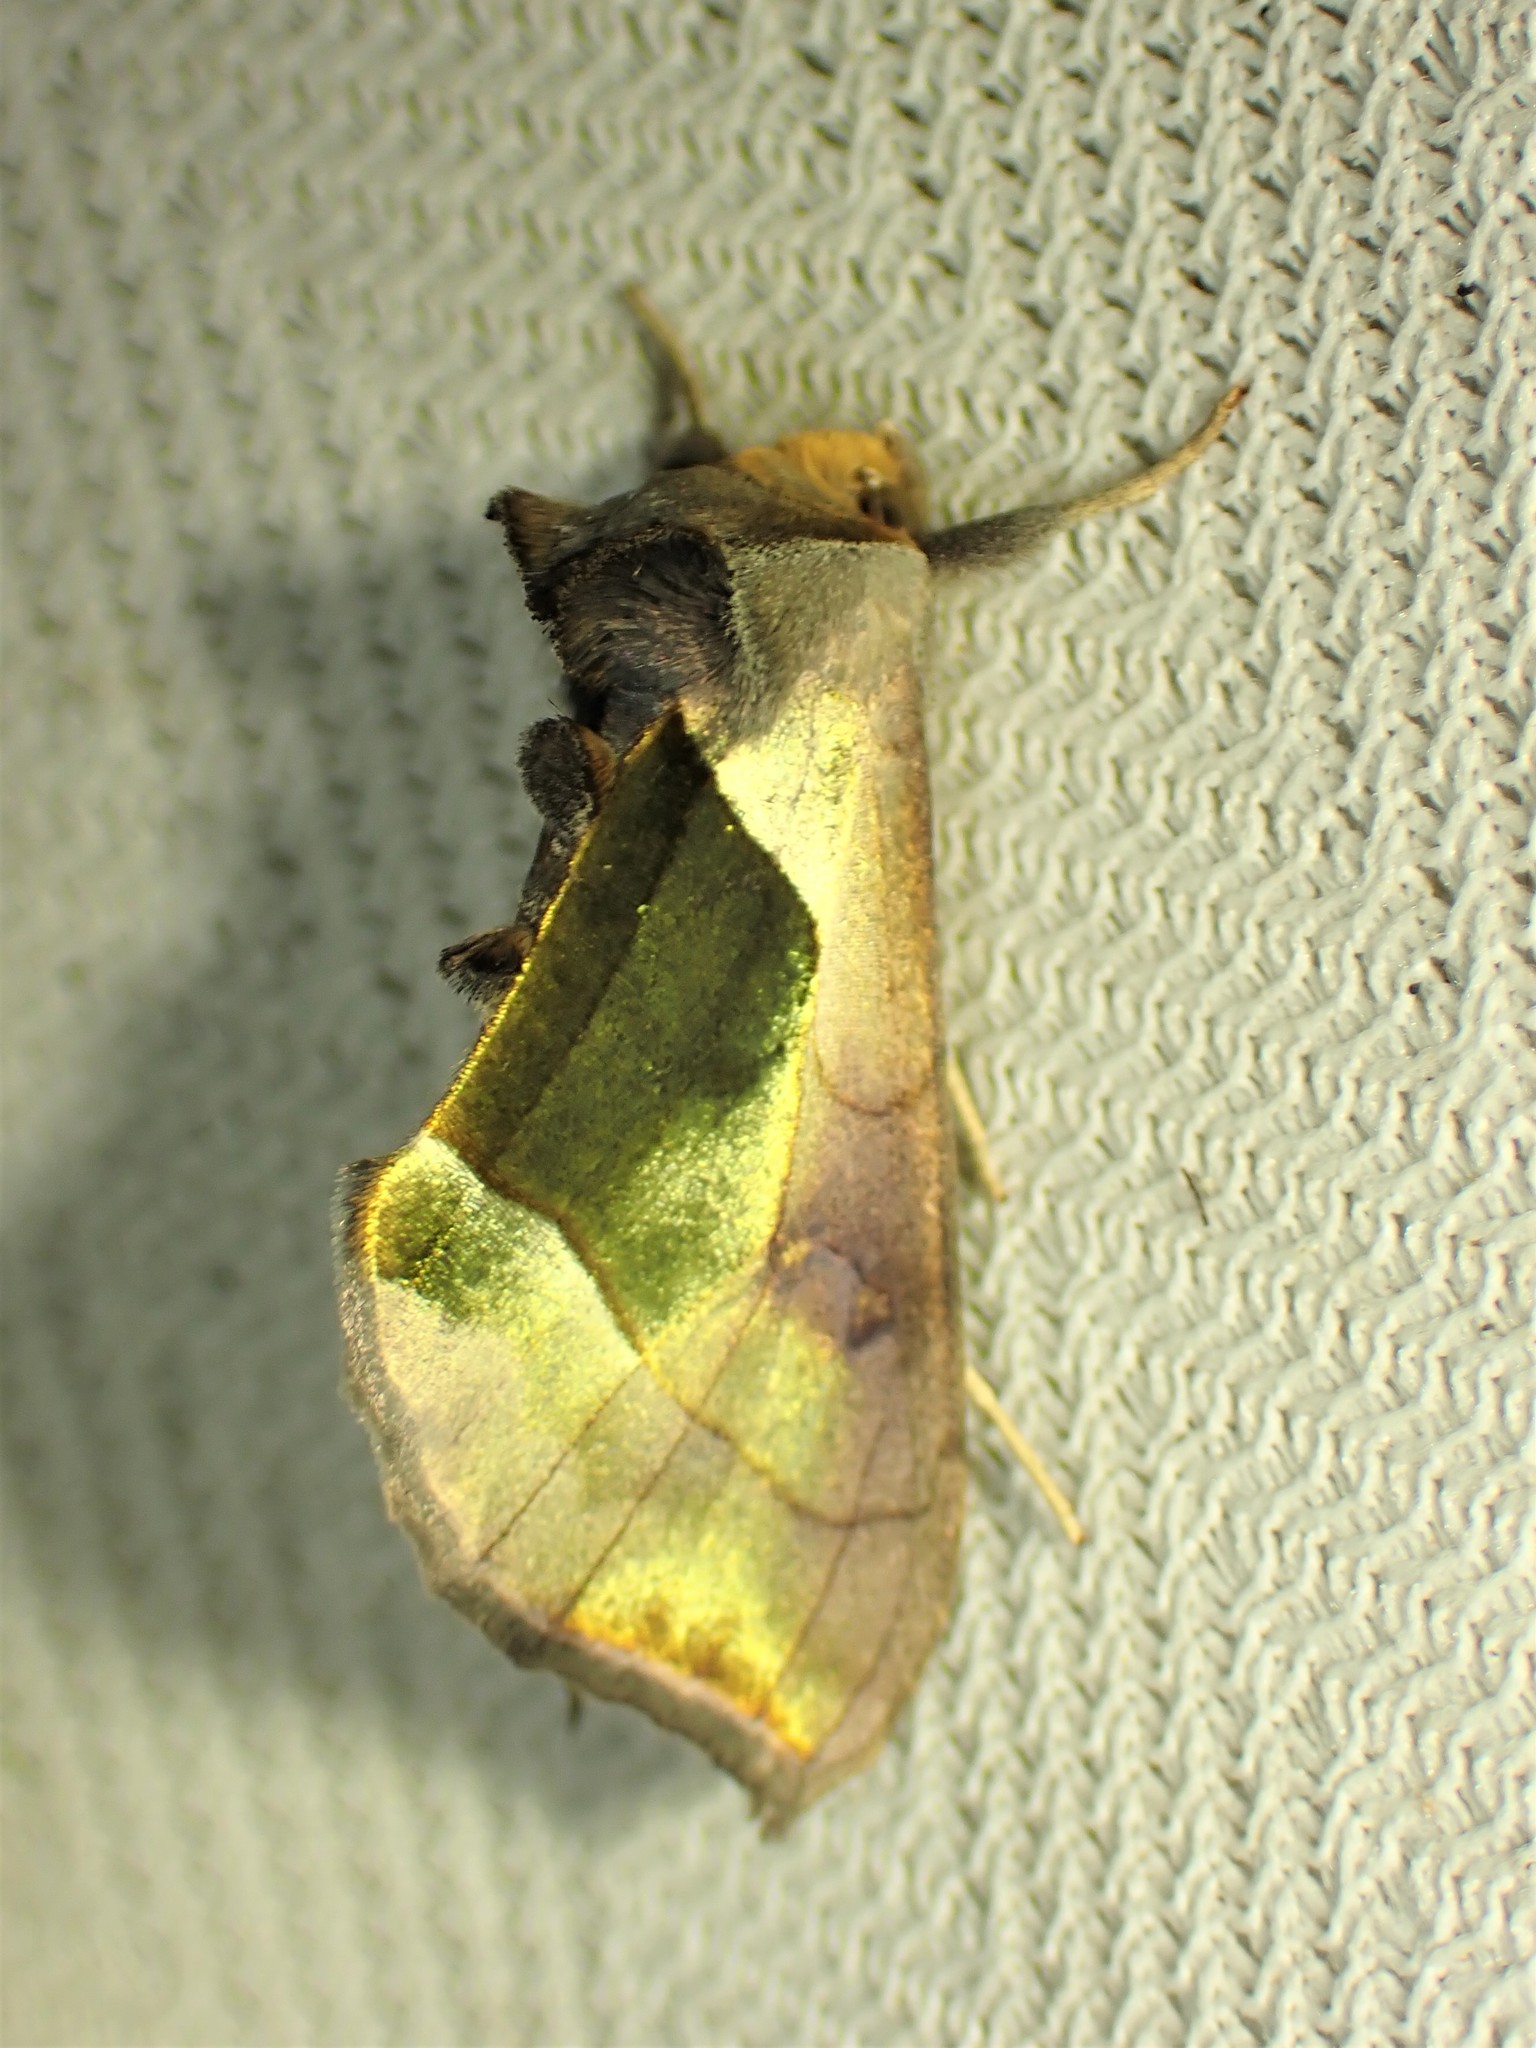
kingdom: Animalia
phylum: Arthropoda
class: Insecta
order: Lepidoptera
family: Noctuidae
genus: Diachrysia
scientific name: Diachrysia balluca
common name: Green-patched looper moth
